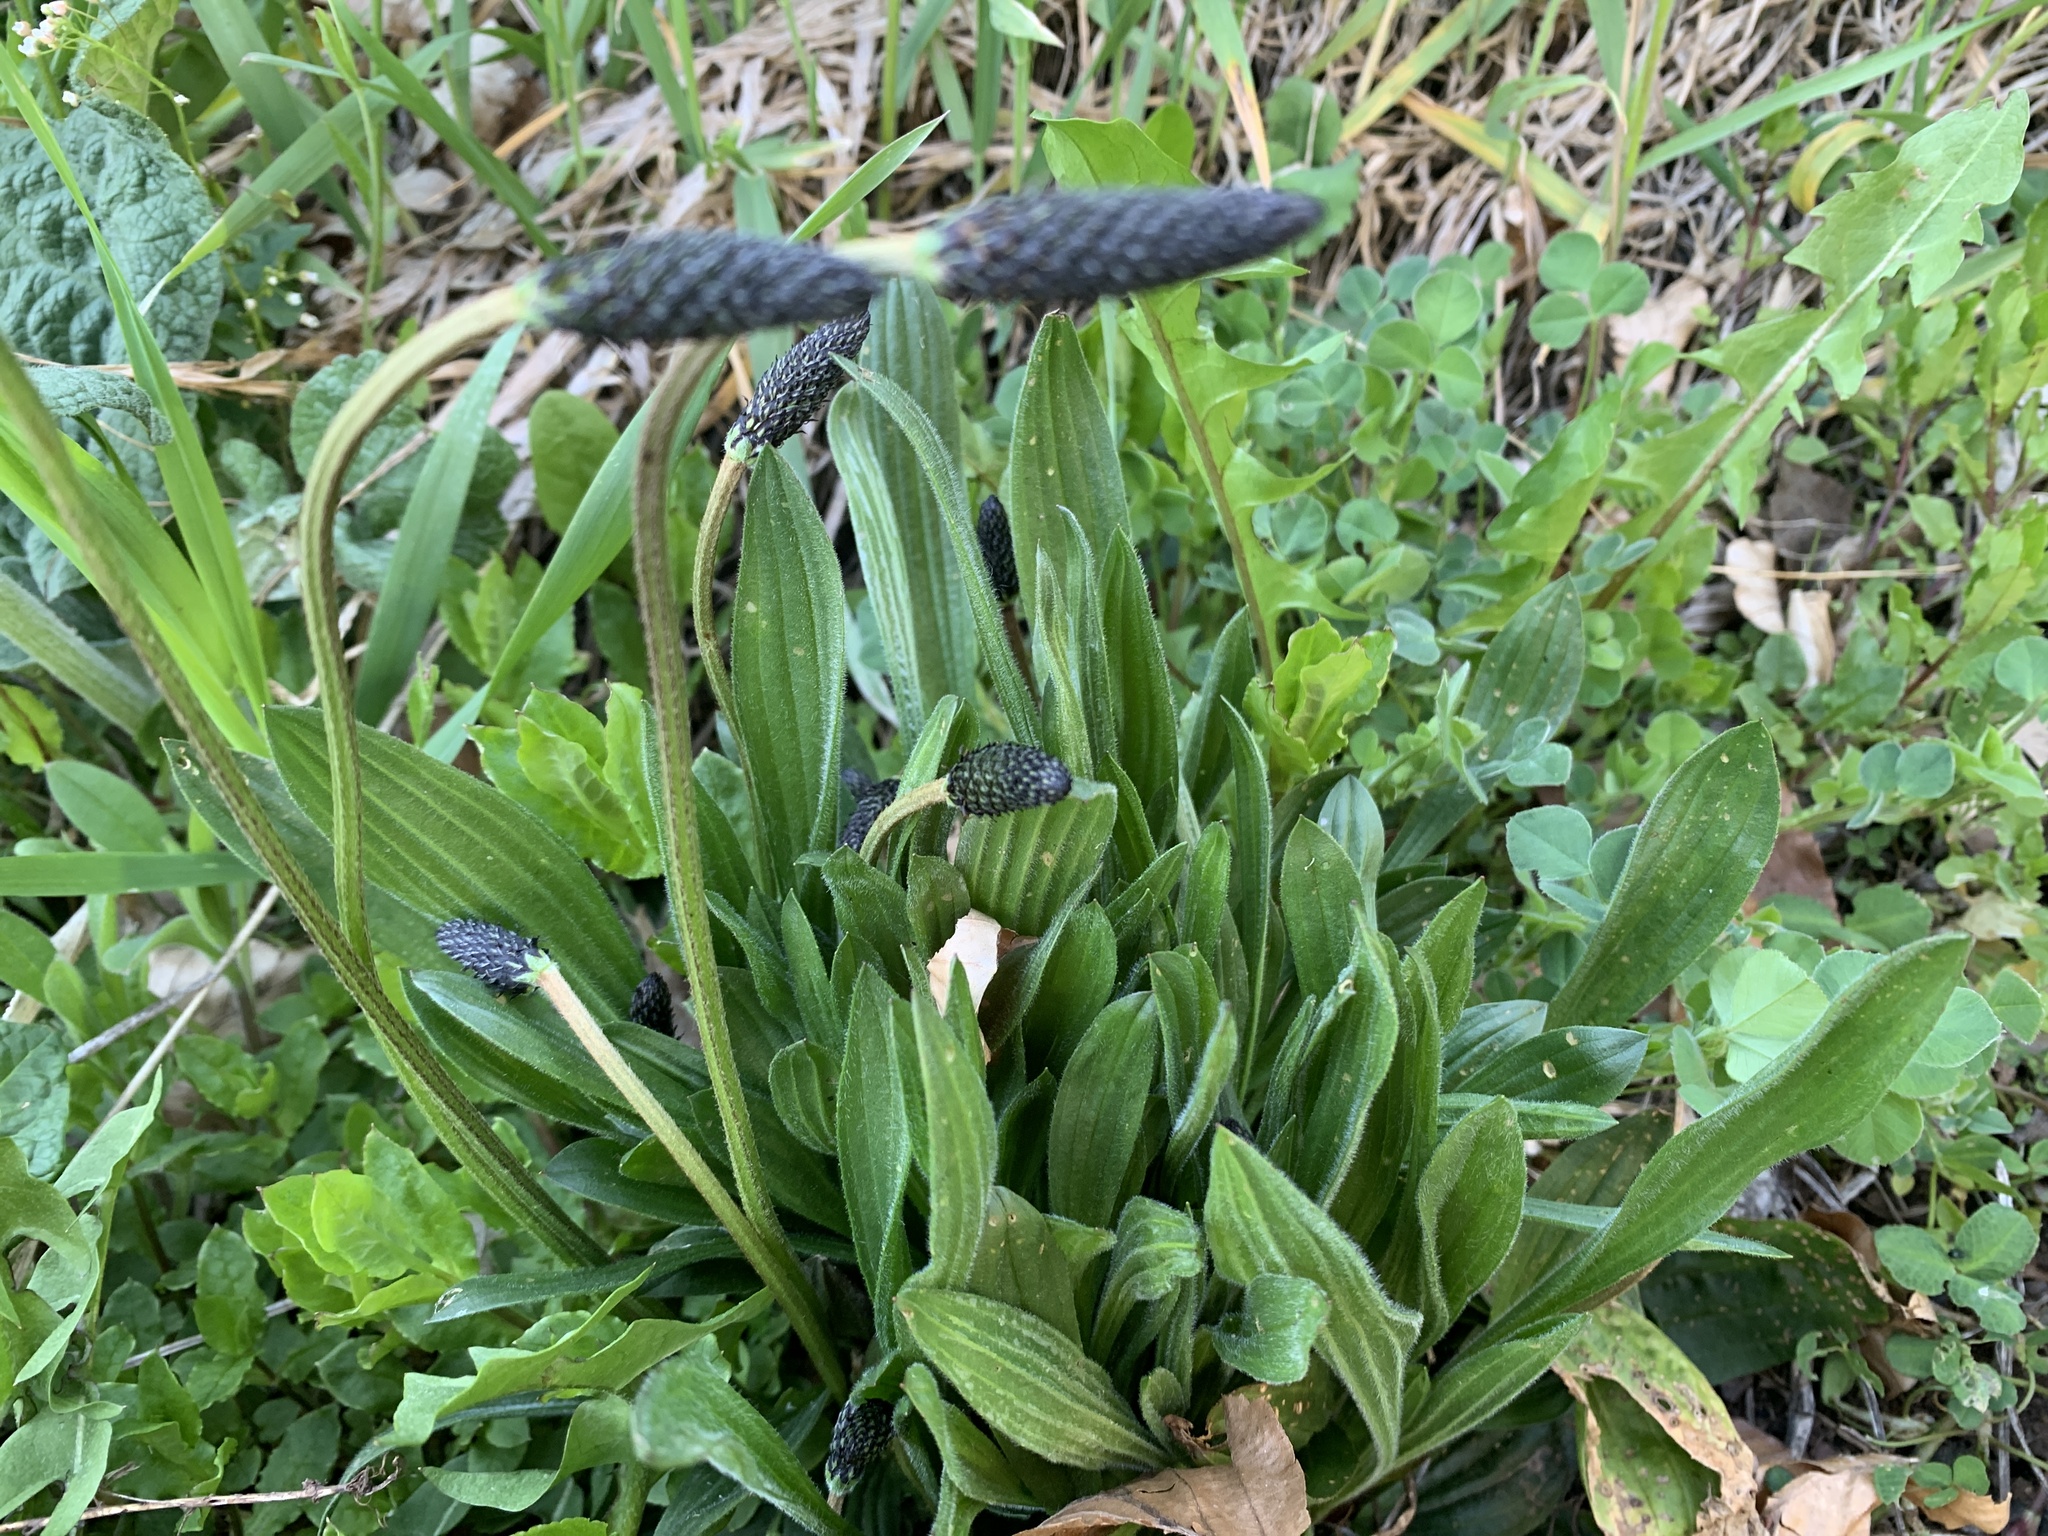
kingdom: Plantae
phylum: Tracheophyta
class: Magnoliopsida
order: Lamiales
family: Plantaginaceae
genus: Plantago
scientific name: Plantago lanceolata
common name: Ribwort plantain
